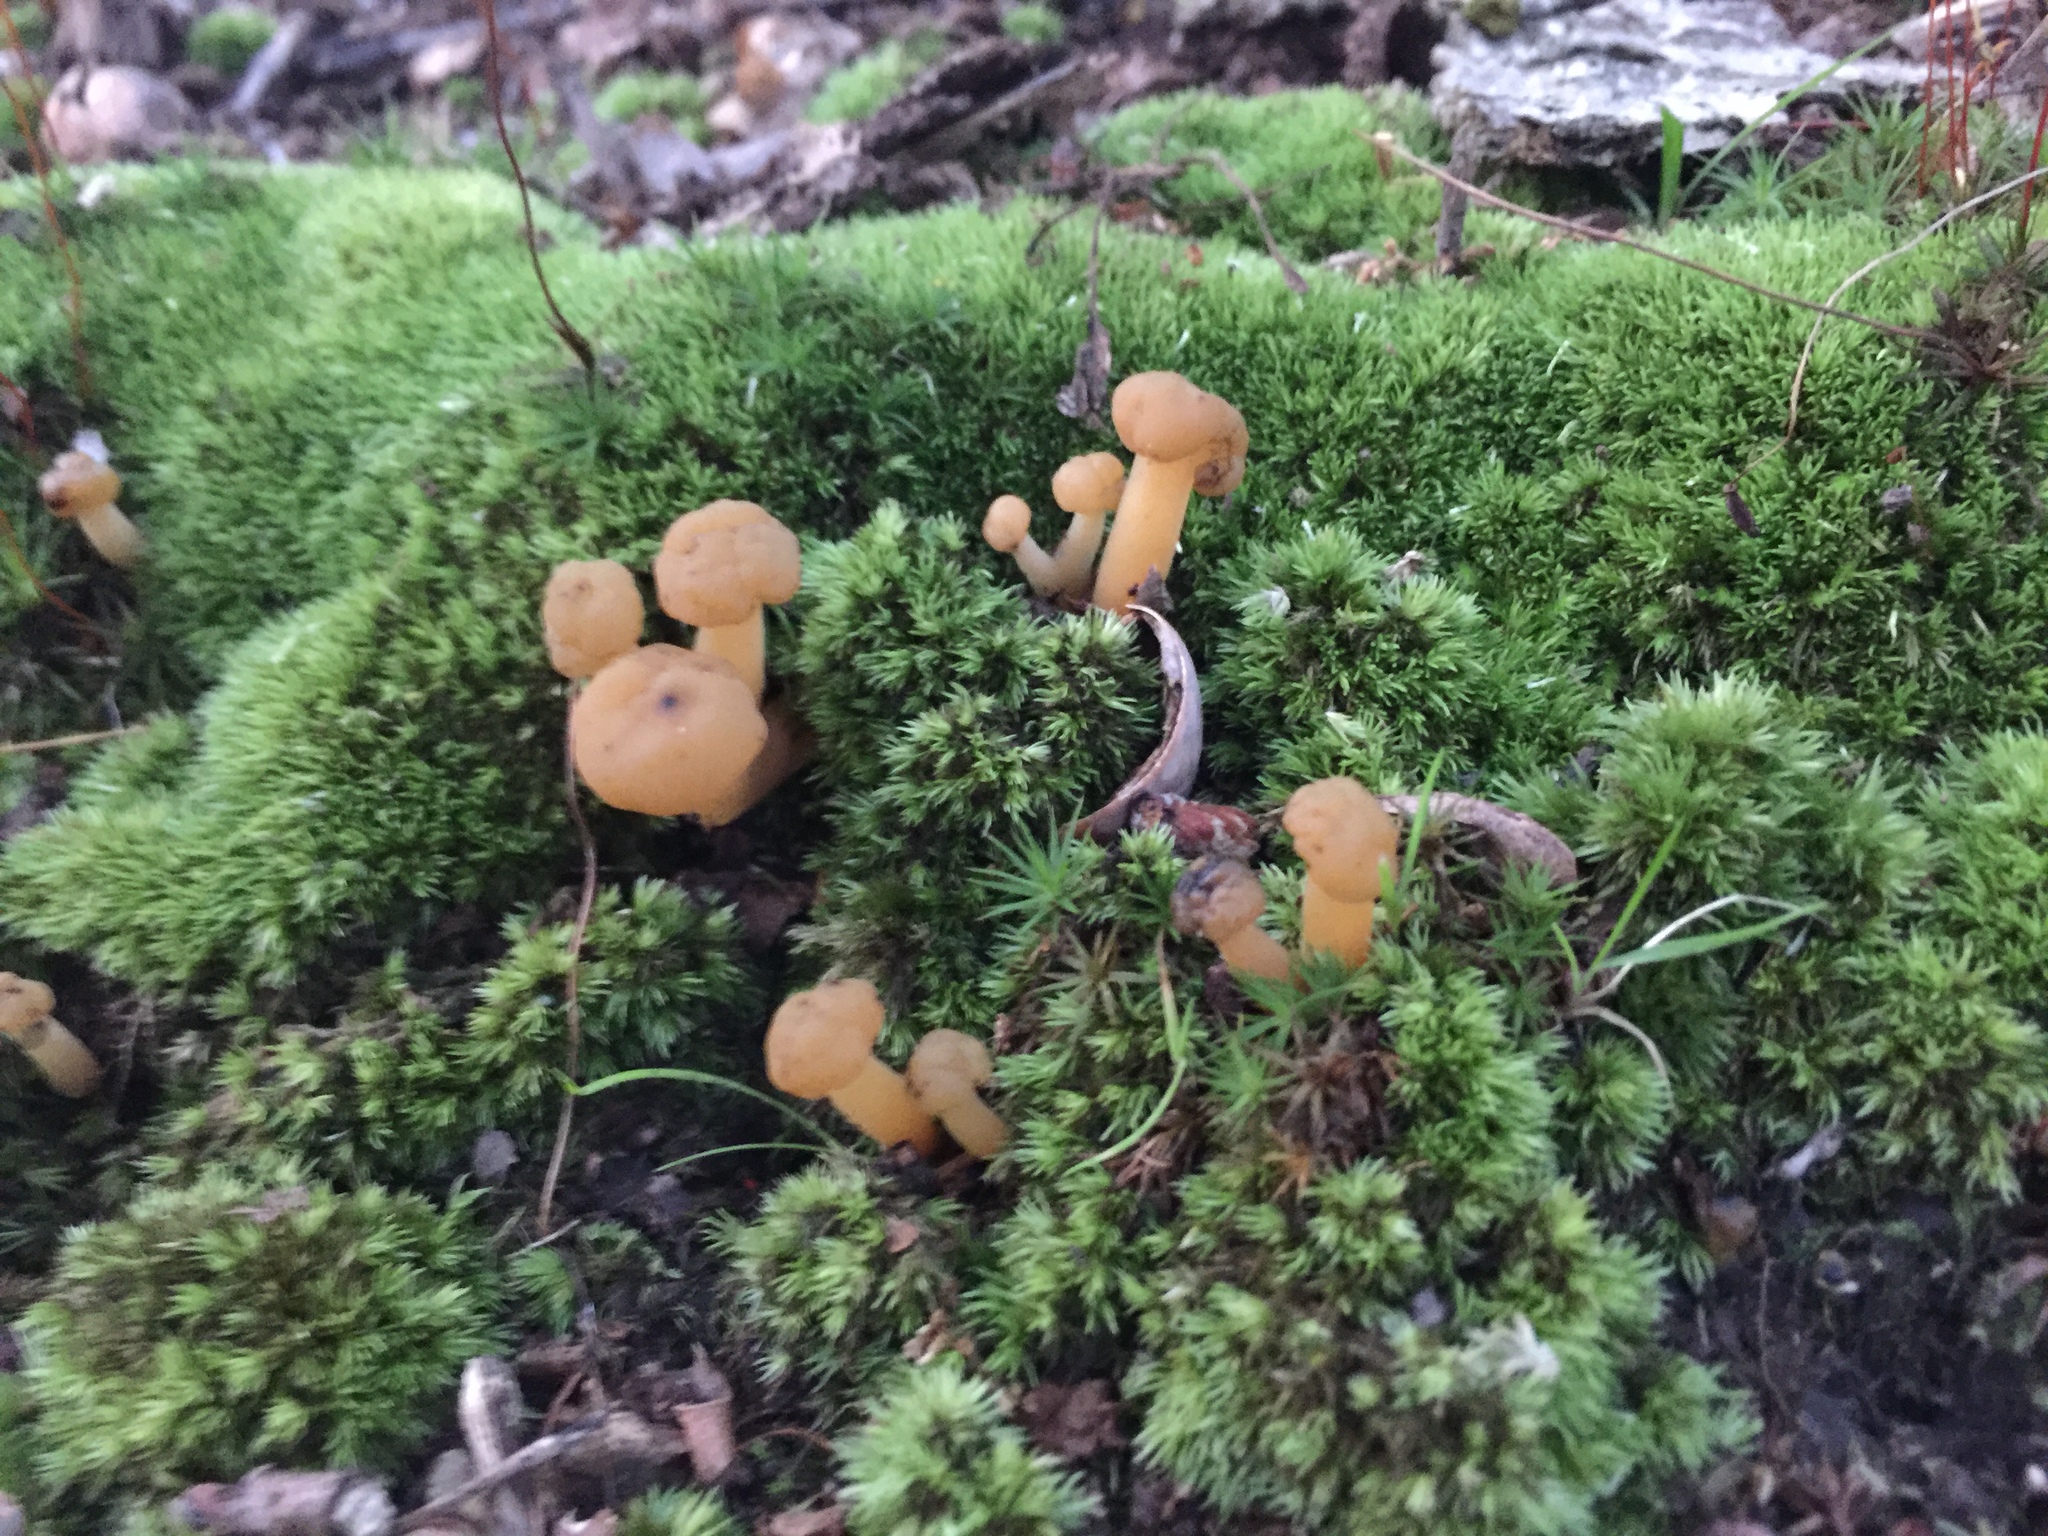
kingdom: Fungi
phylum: Ascomycota
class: Leotiomycetes
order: Leotiales
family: Leotiaceae
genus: Leotia
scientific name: Leotia lubrica
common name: Jellybaby
